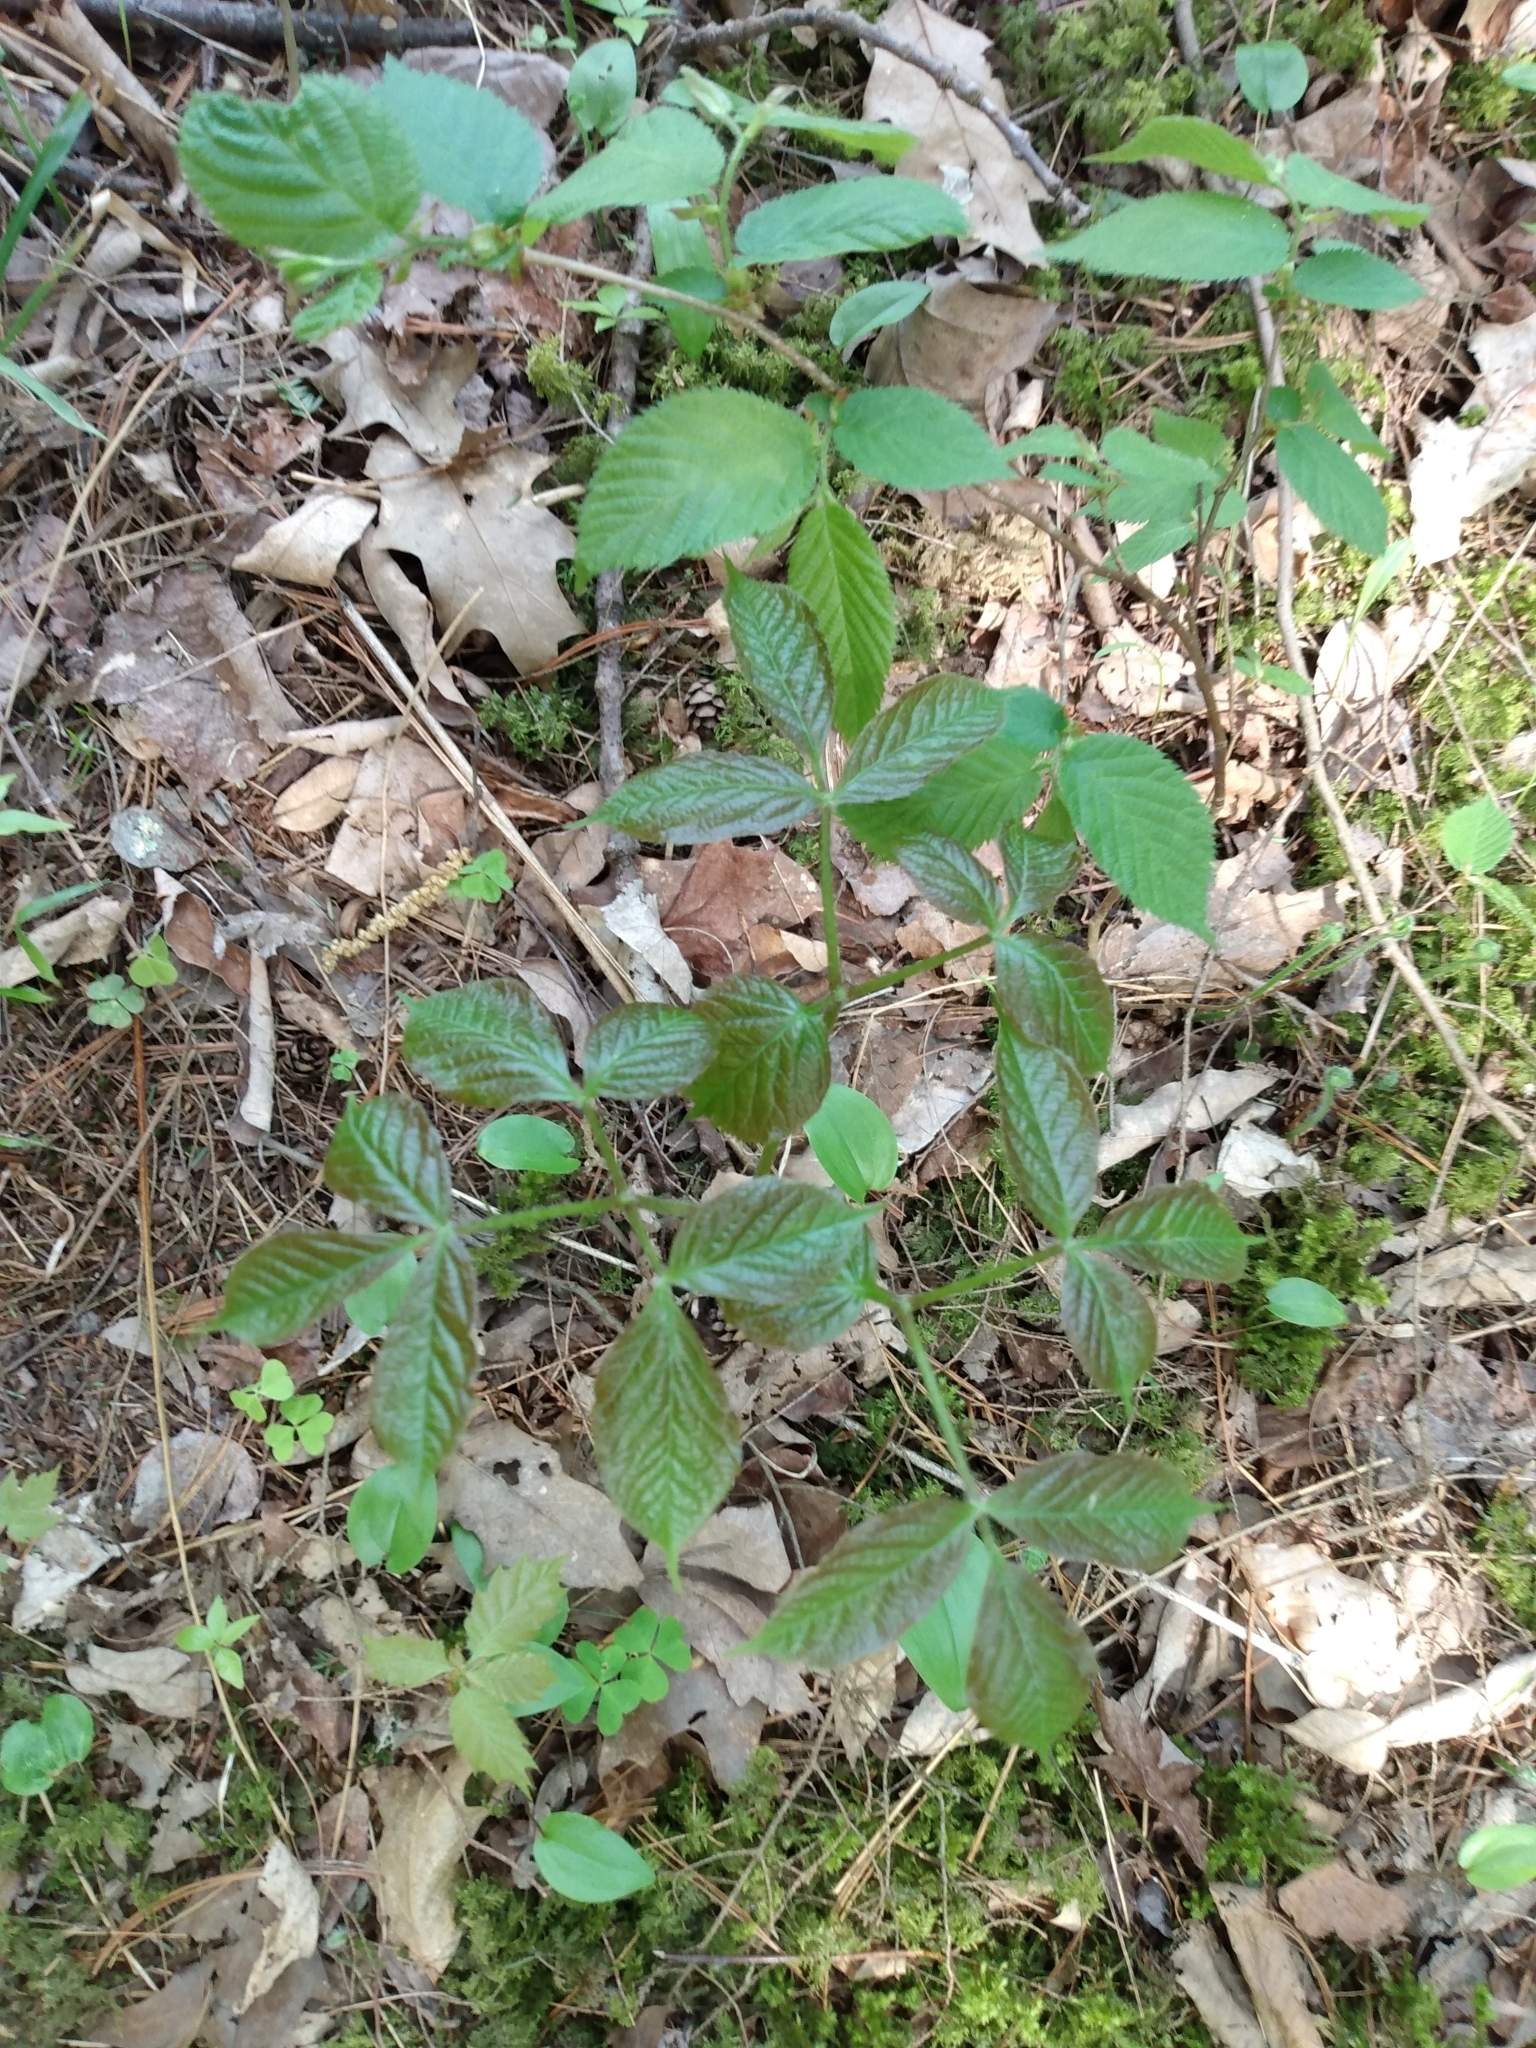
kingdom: Plantae
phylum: Tracheophyta
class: Magnoliopsida
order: Apiales
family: Araliaceae
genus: Aralia
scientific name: Aralia nudicaulis
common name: Wild sarsaparilla
